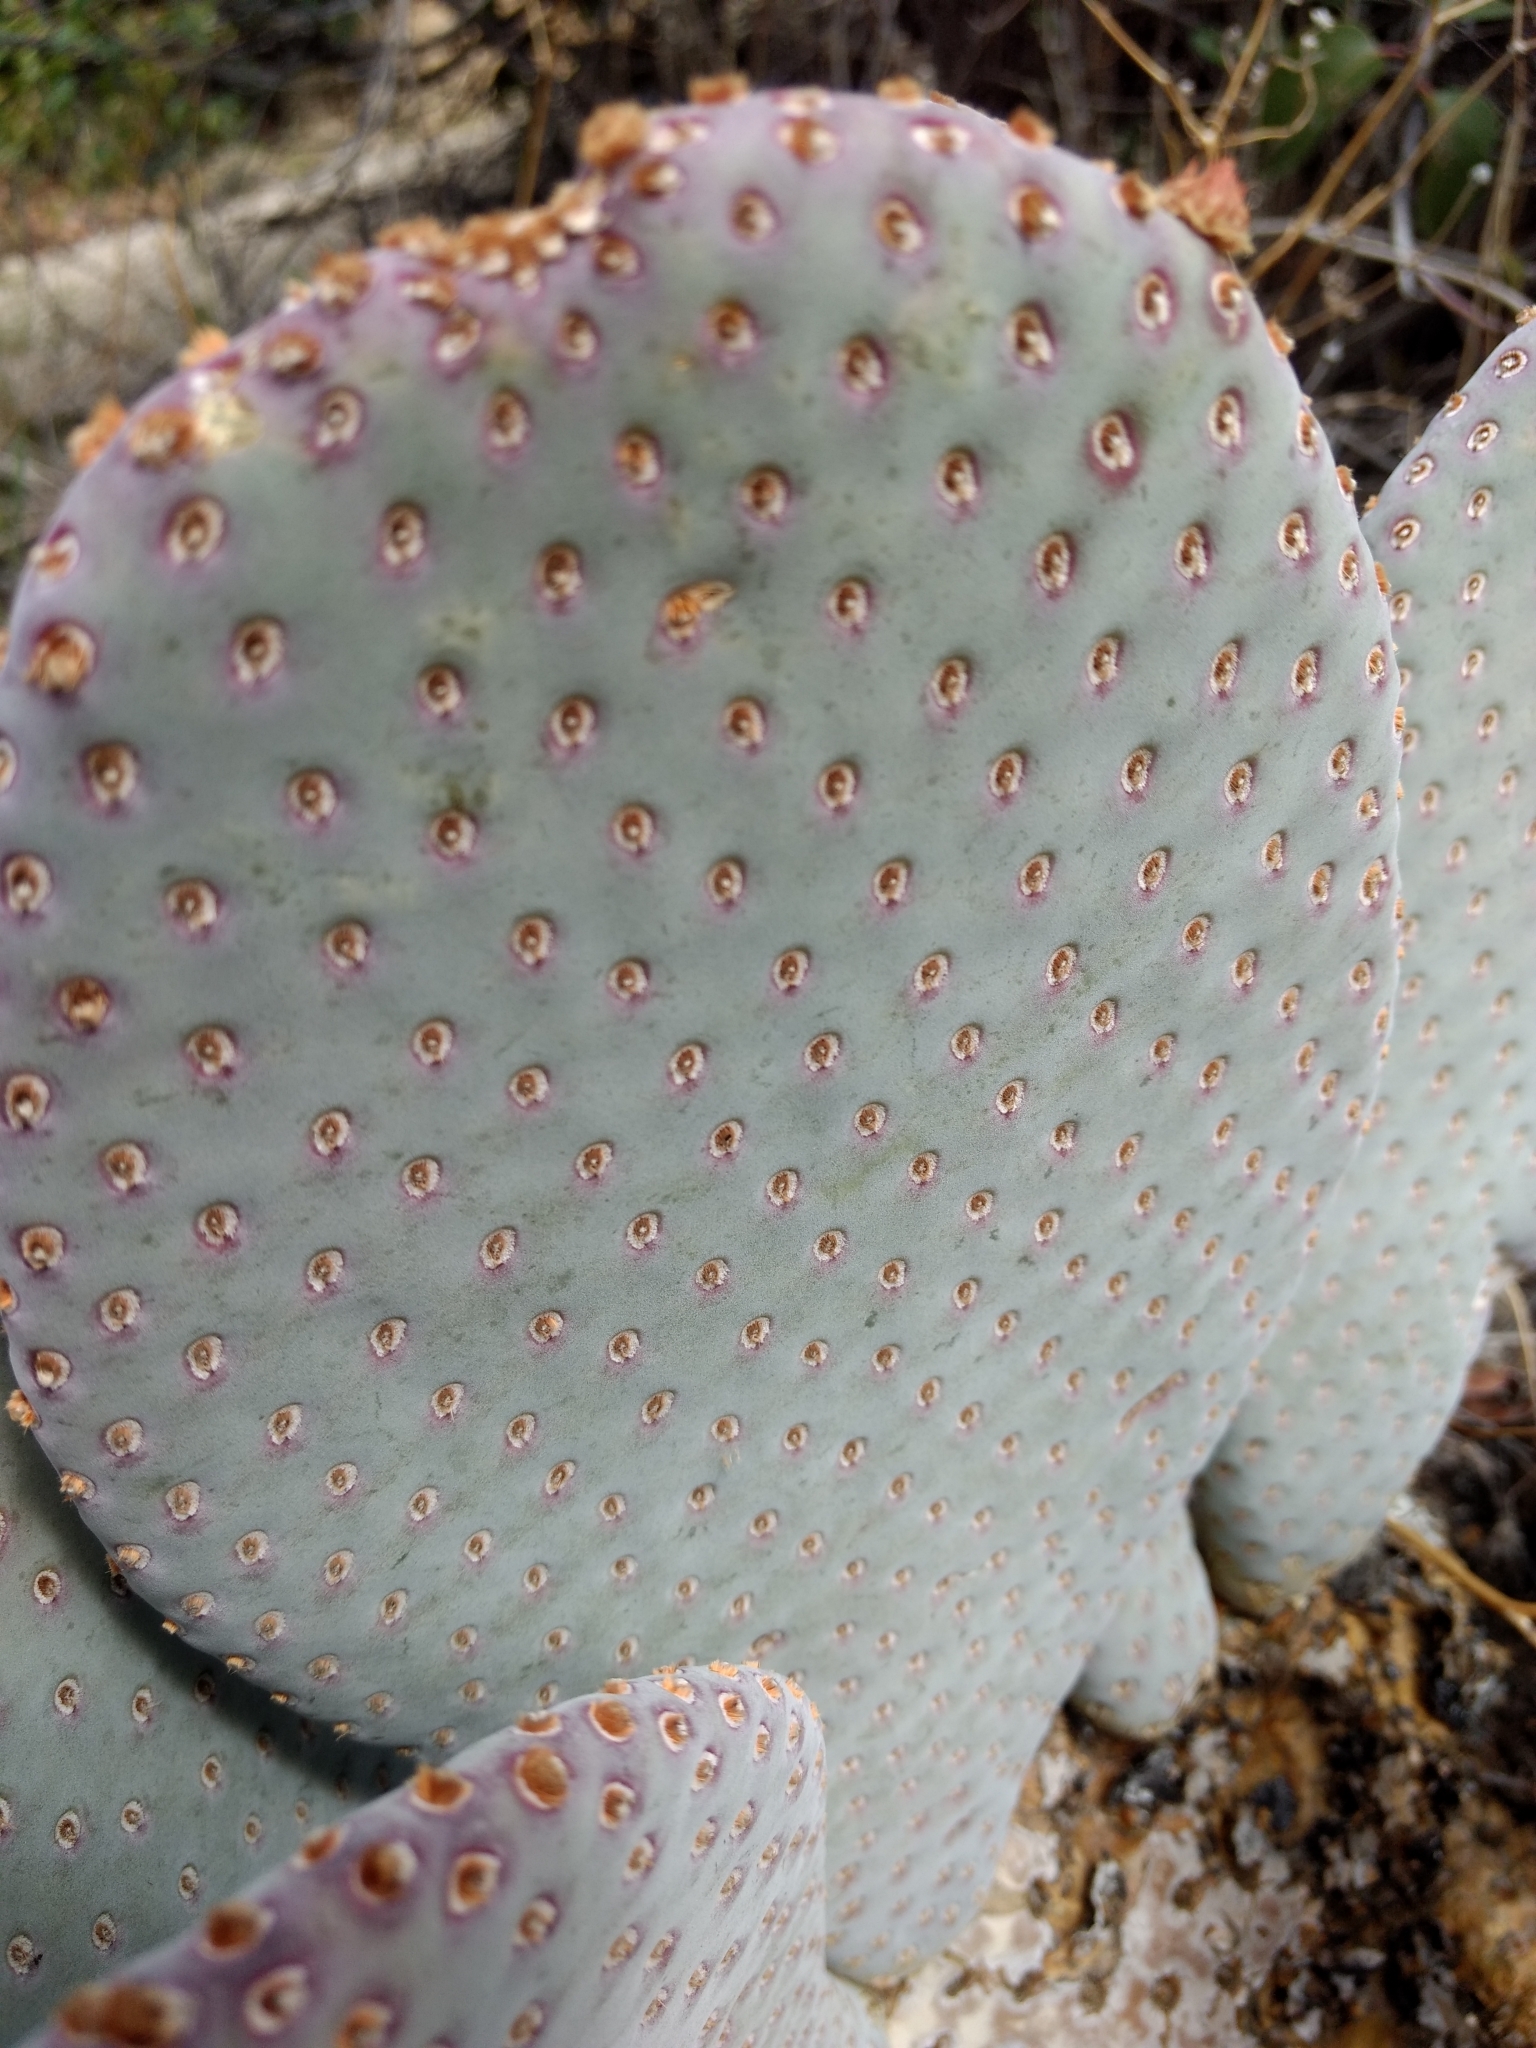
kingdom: Plantae
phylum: Tracheophyta
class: Magnoliopsida
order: Caryophyllales
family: Cactaceae
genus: Opuntia
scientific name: Opuntia basilaris
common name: Beavertail prickly-pear
